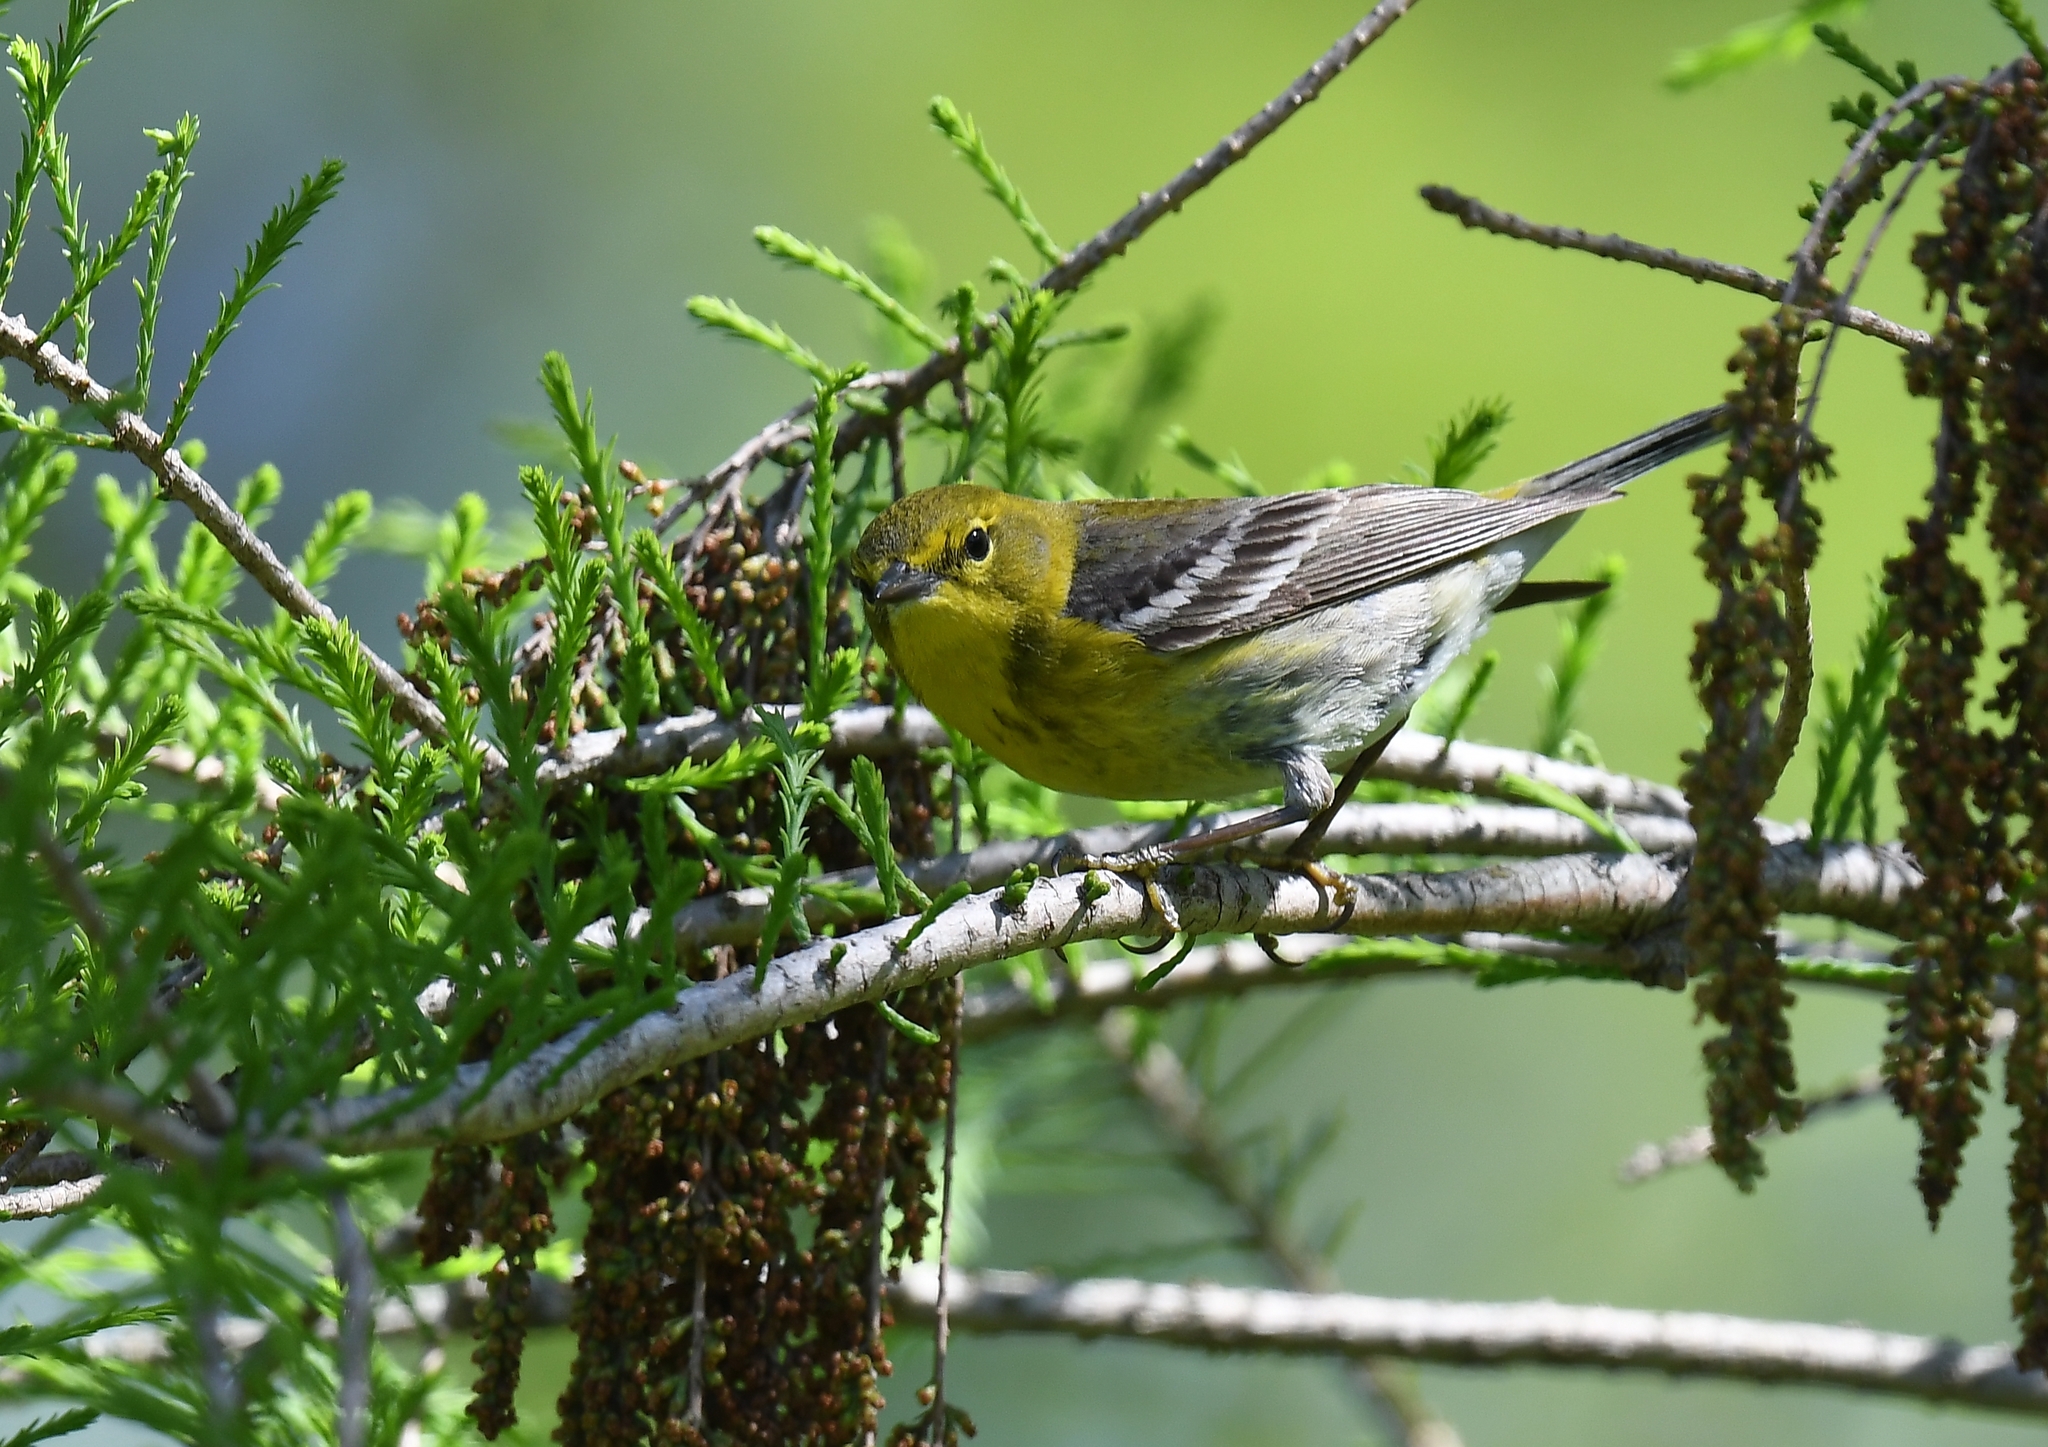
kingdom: Animalia
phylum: Chordata
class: Aves
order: Passeriformes
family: Parulidae
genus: Setophaga
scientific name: Setophaga pinus
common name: Pine warbler
